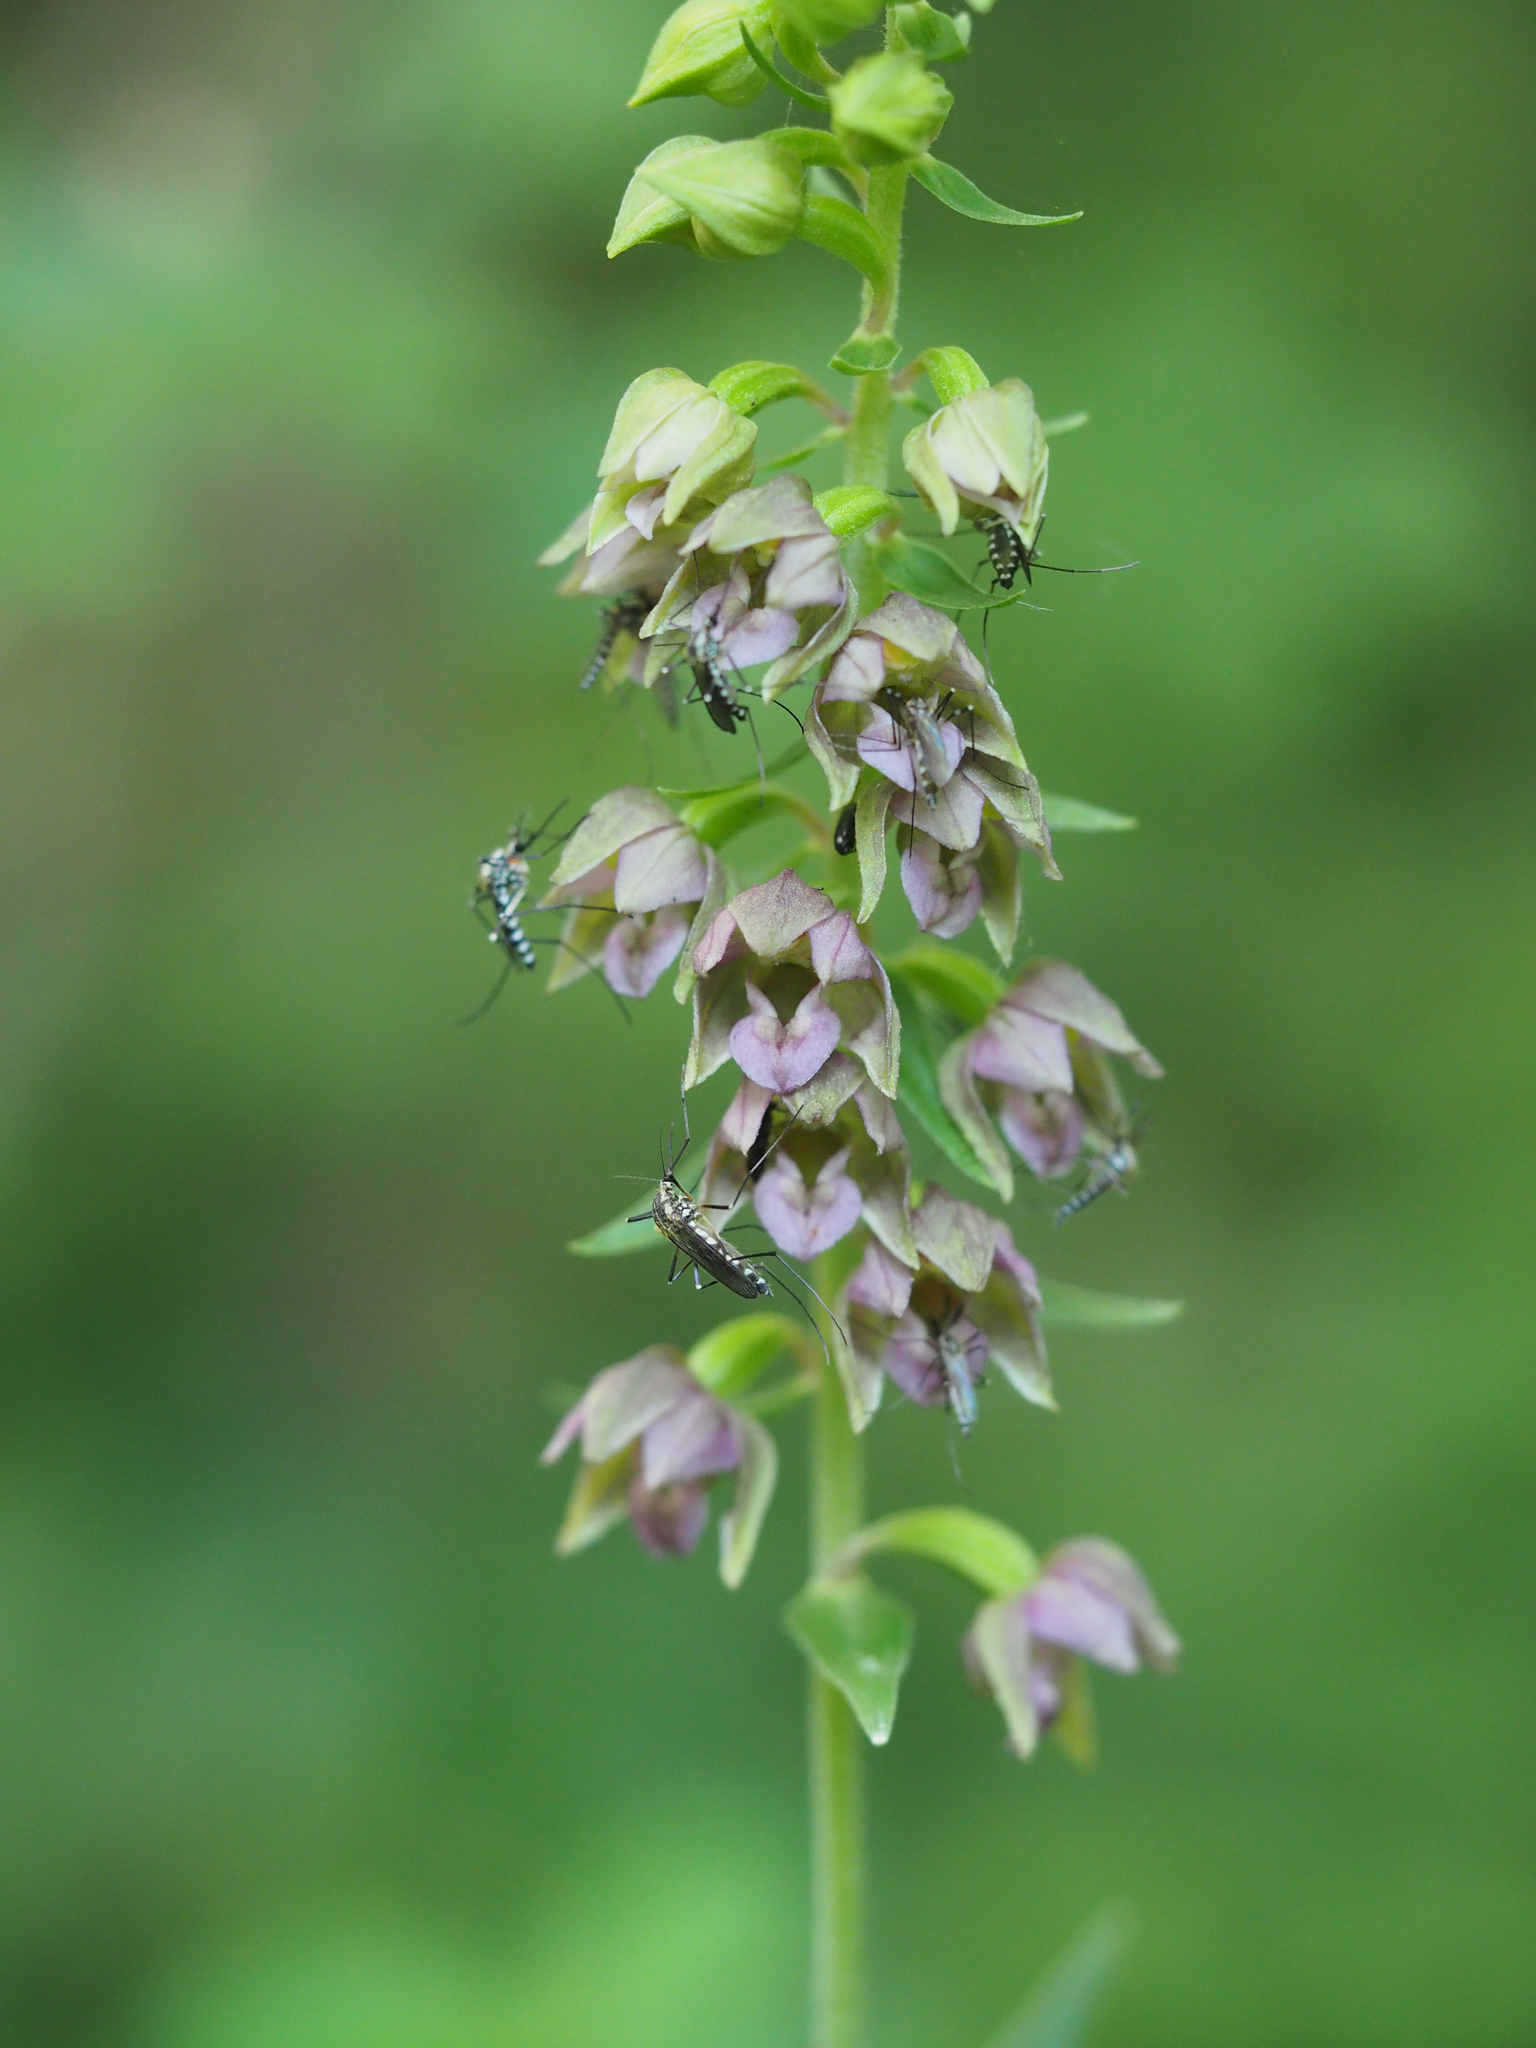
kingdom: Animalia
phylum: Arthropoda
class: Insecta
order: Diptera
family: Culicidae
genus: Aedes
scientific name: Aedes geniculatus
